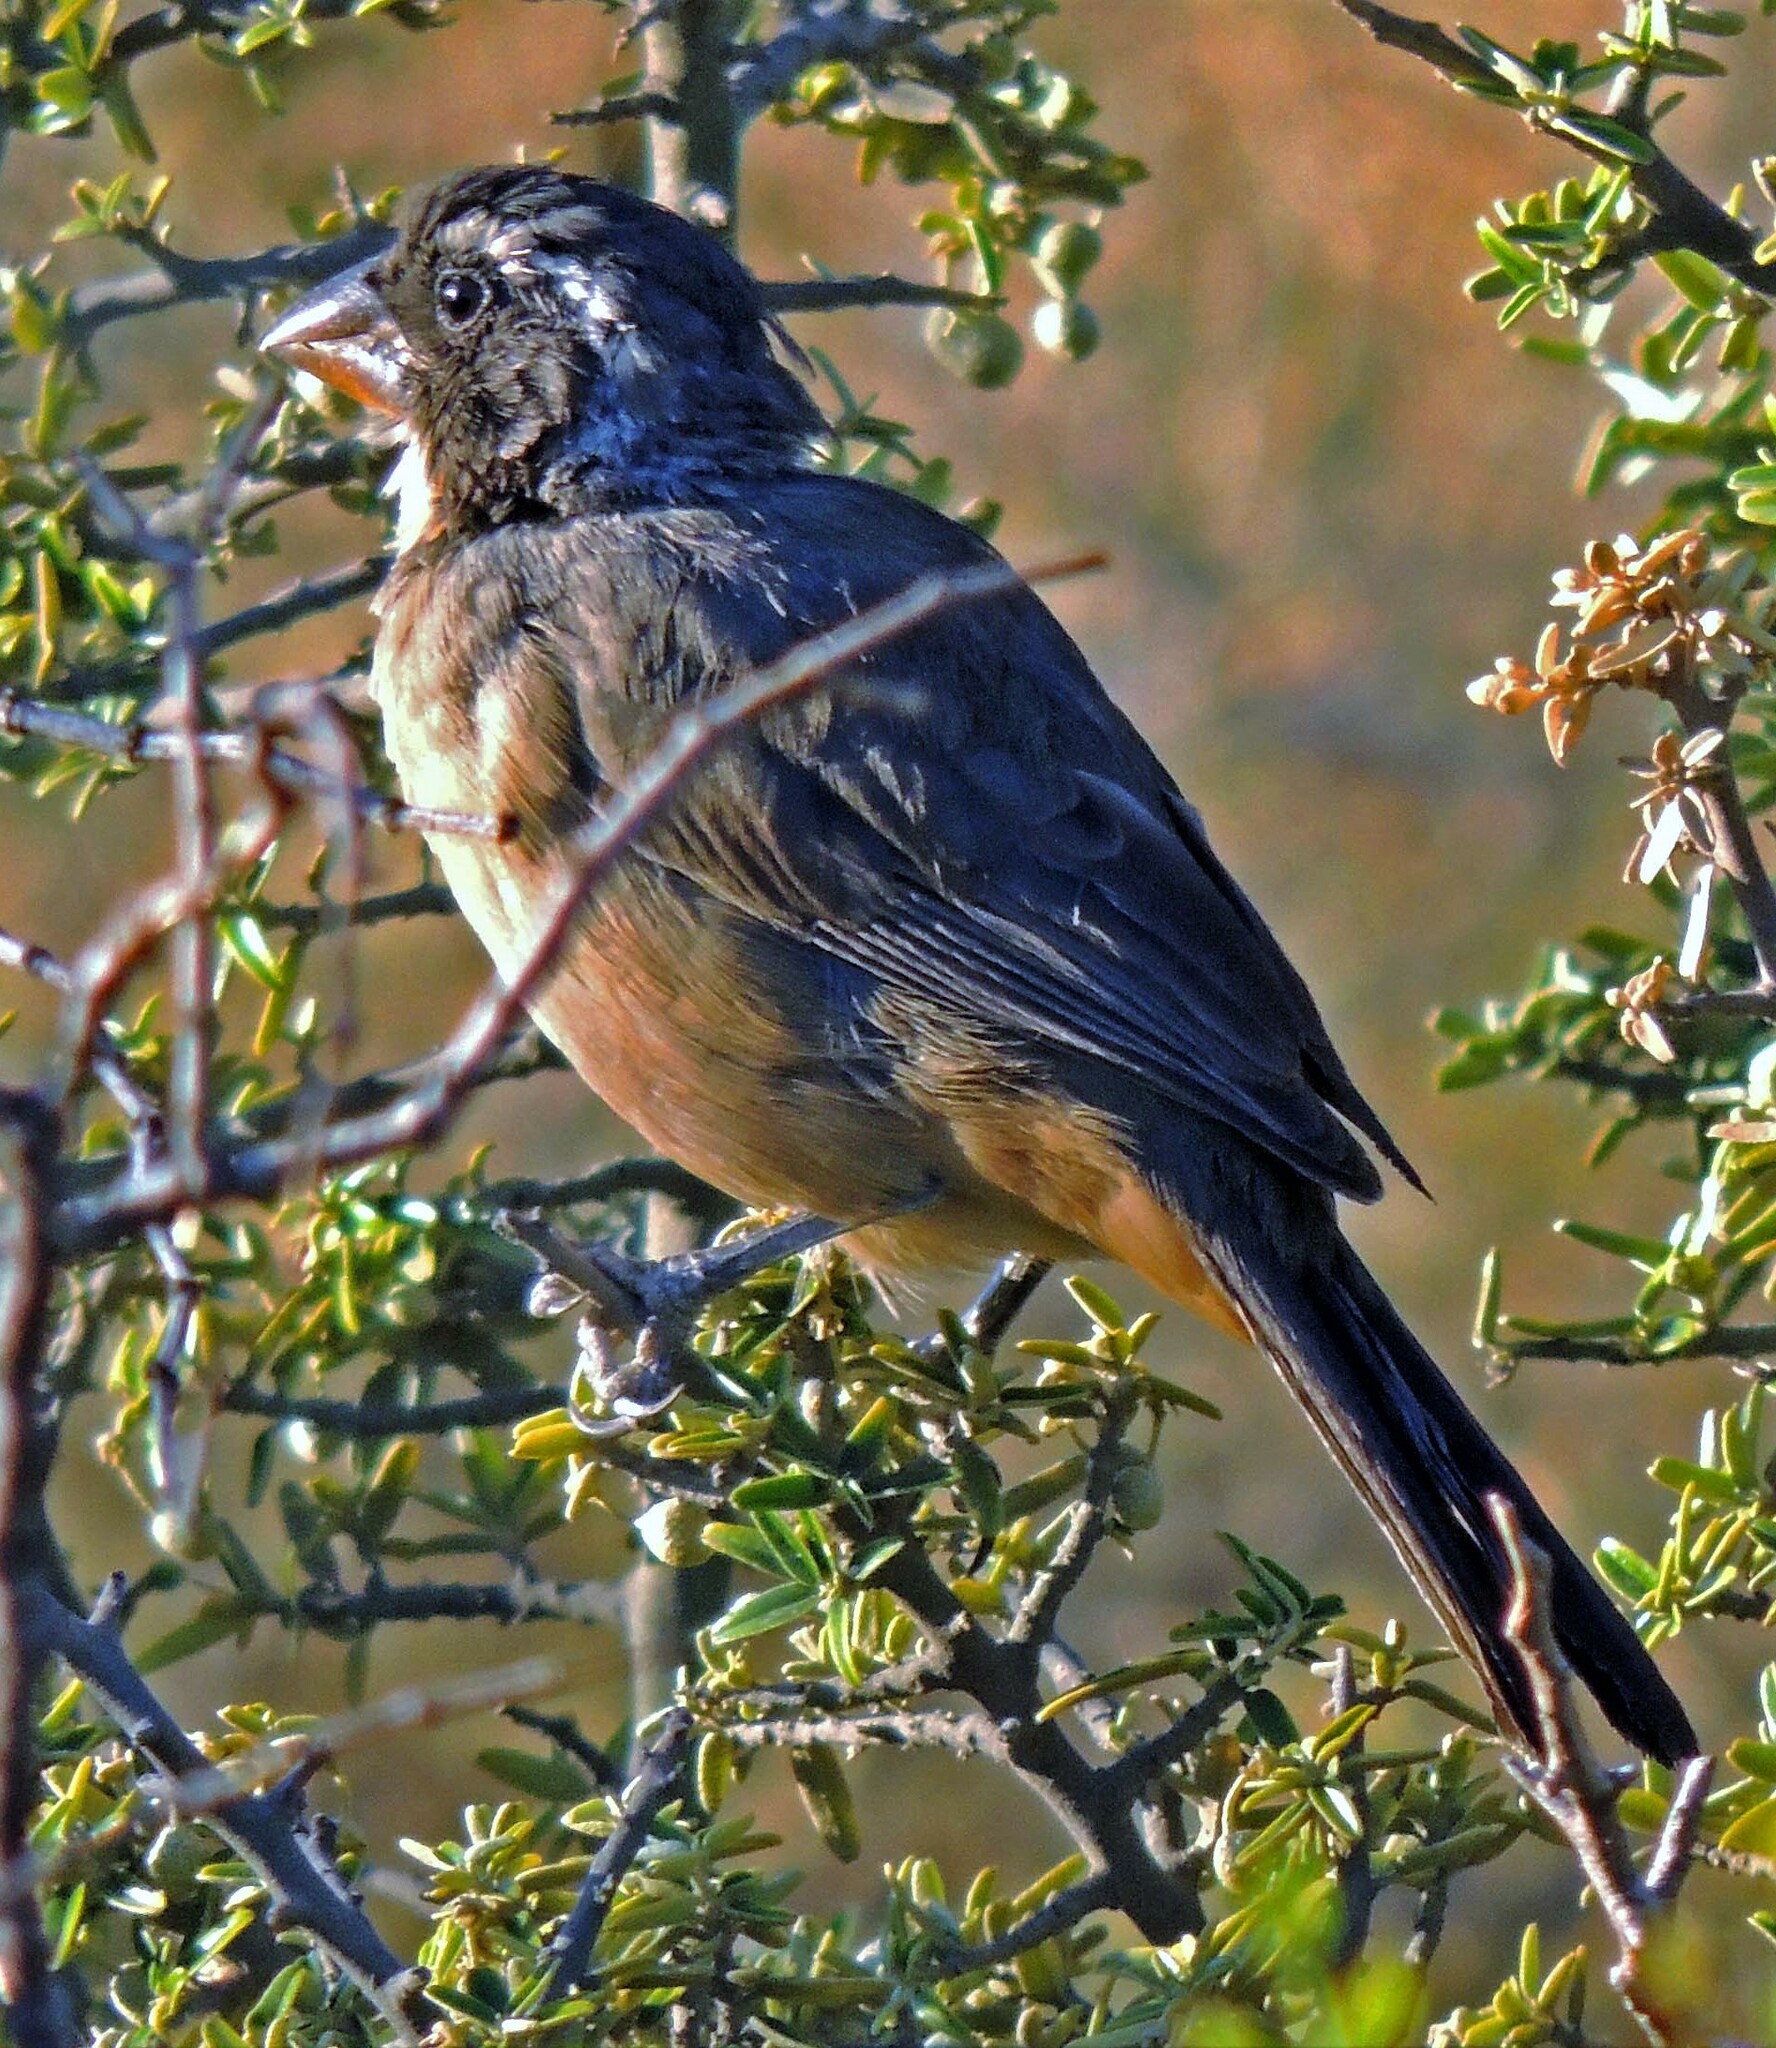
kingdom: Animalia
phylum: Chordata
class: Aves
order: Passeriformes
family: Thraupidae
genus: Saltator
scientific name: Saltator aurantiirostris
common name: Golden-billed saltator
